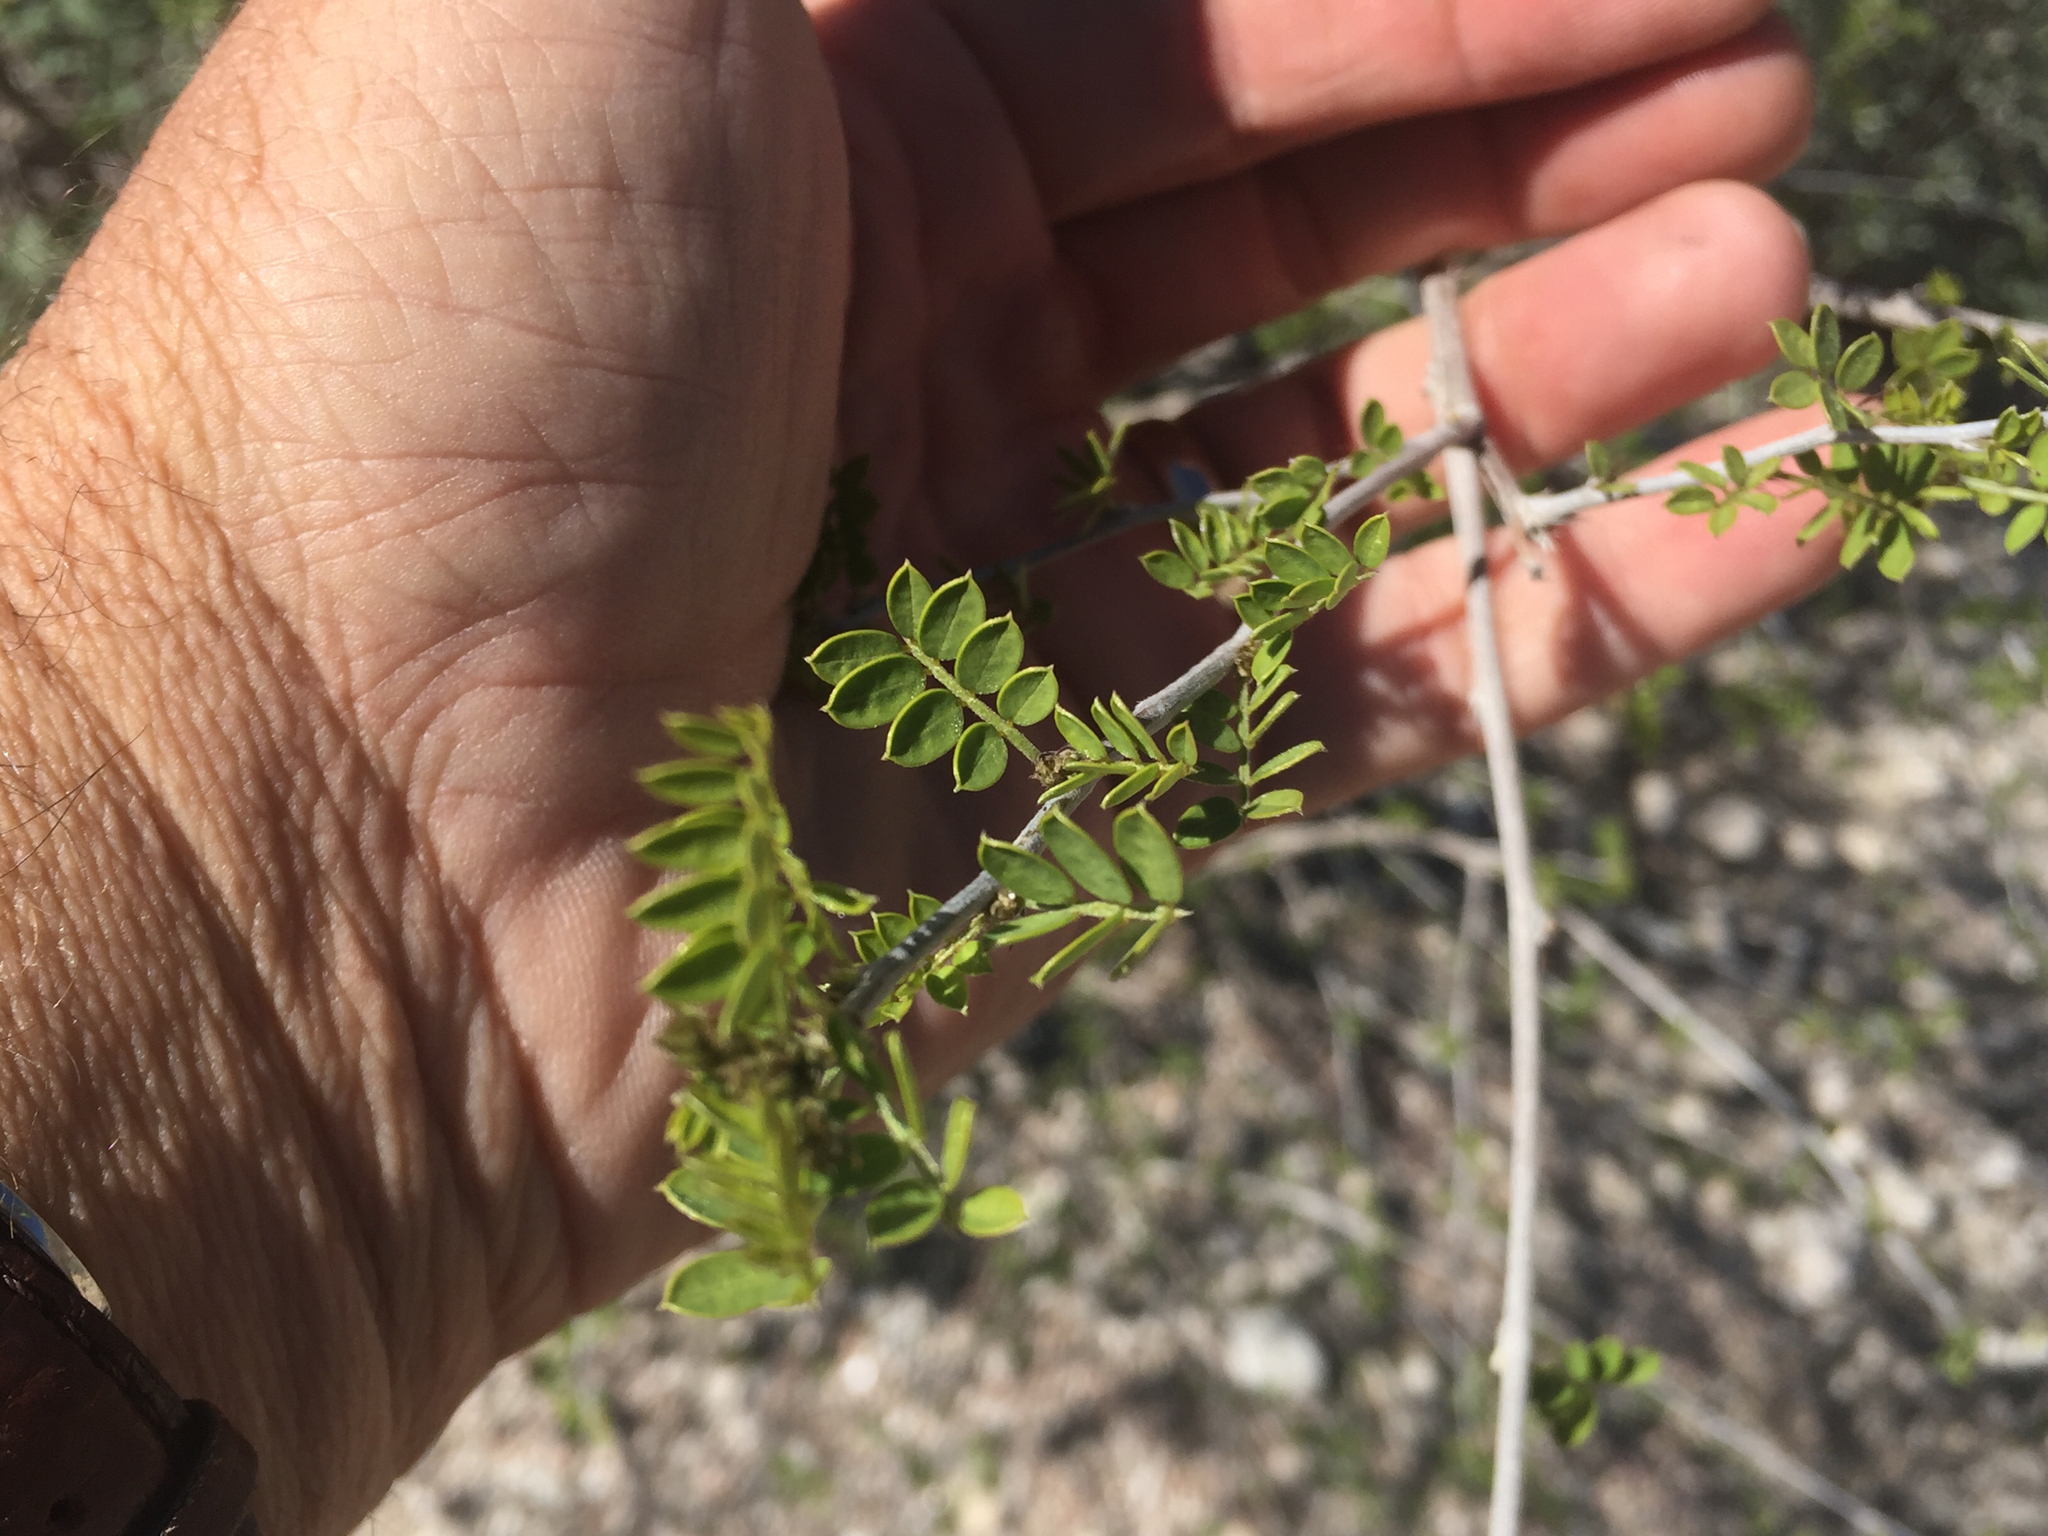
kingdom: Plantae
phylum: Tracheophyta
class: Magnoliopsida
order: Fabales
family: Fabaceae
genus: Coursetia
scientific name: Coursetia glandulosa
